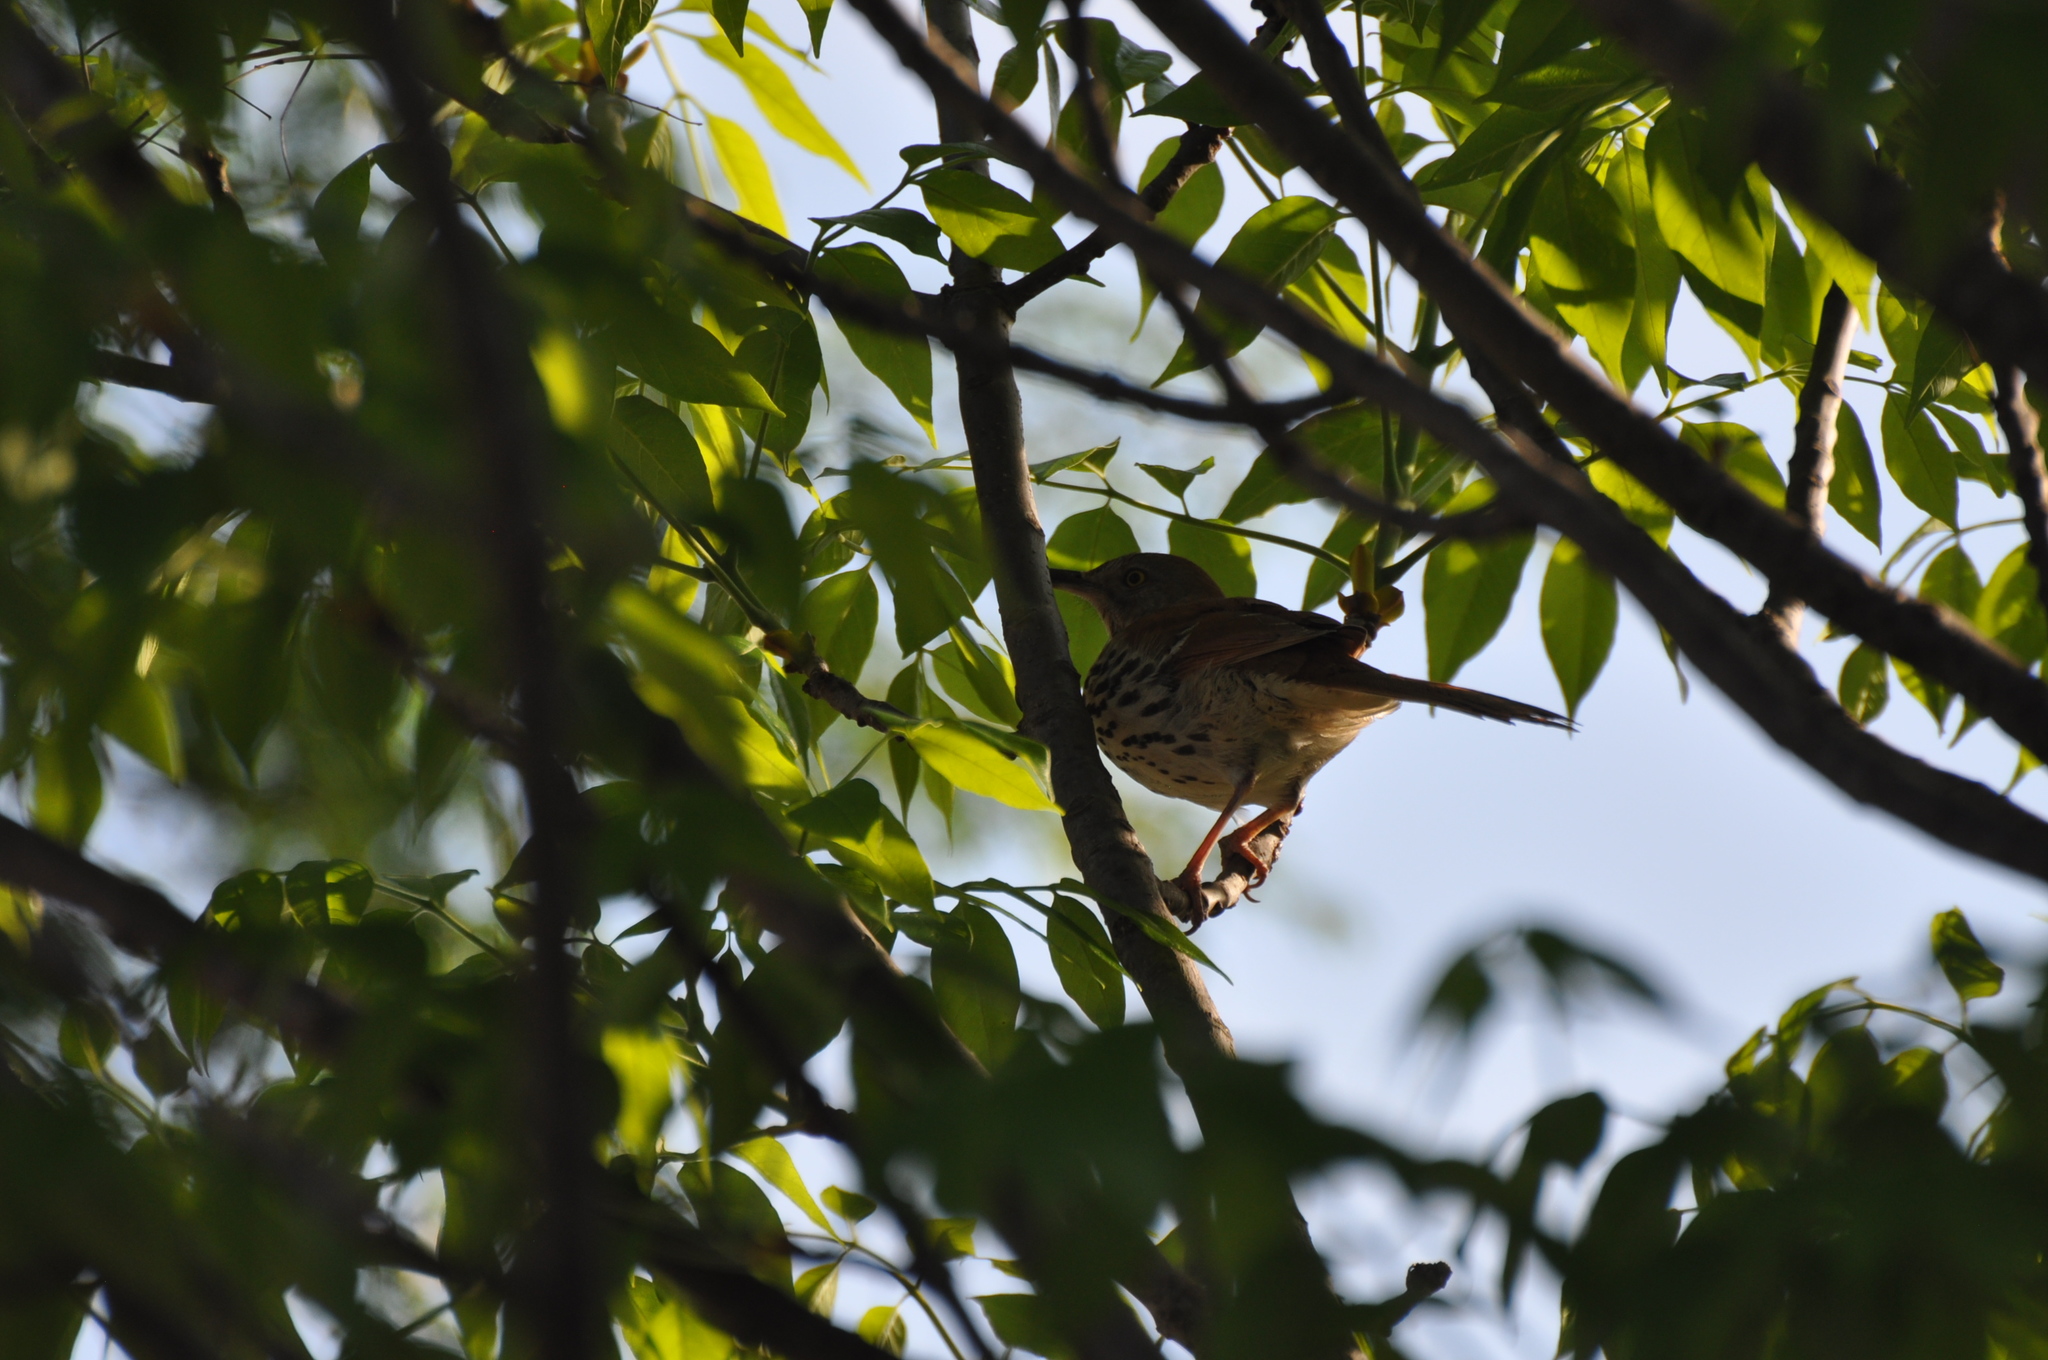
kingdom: Animalia
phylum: Chordata
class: Aves
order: Passeriformes
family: Mimidae
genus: Toxostoma
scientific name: Toxostoma rufum
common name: Brown thrasher
